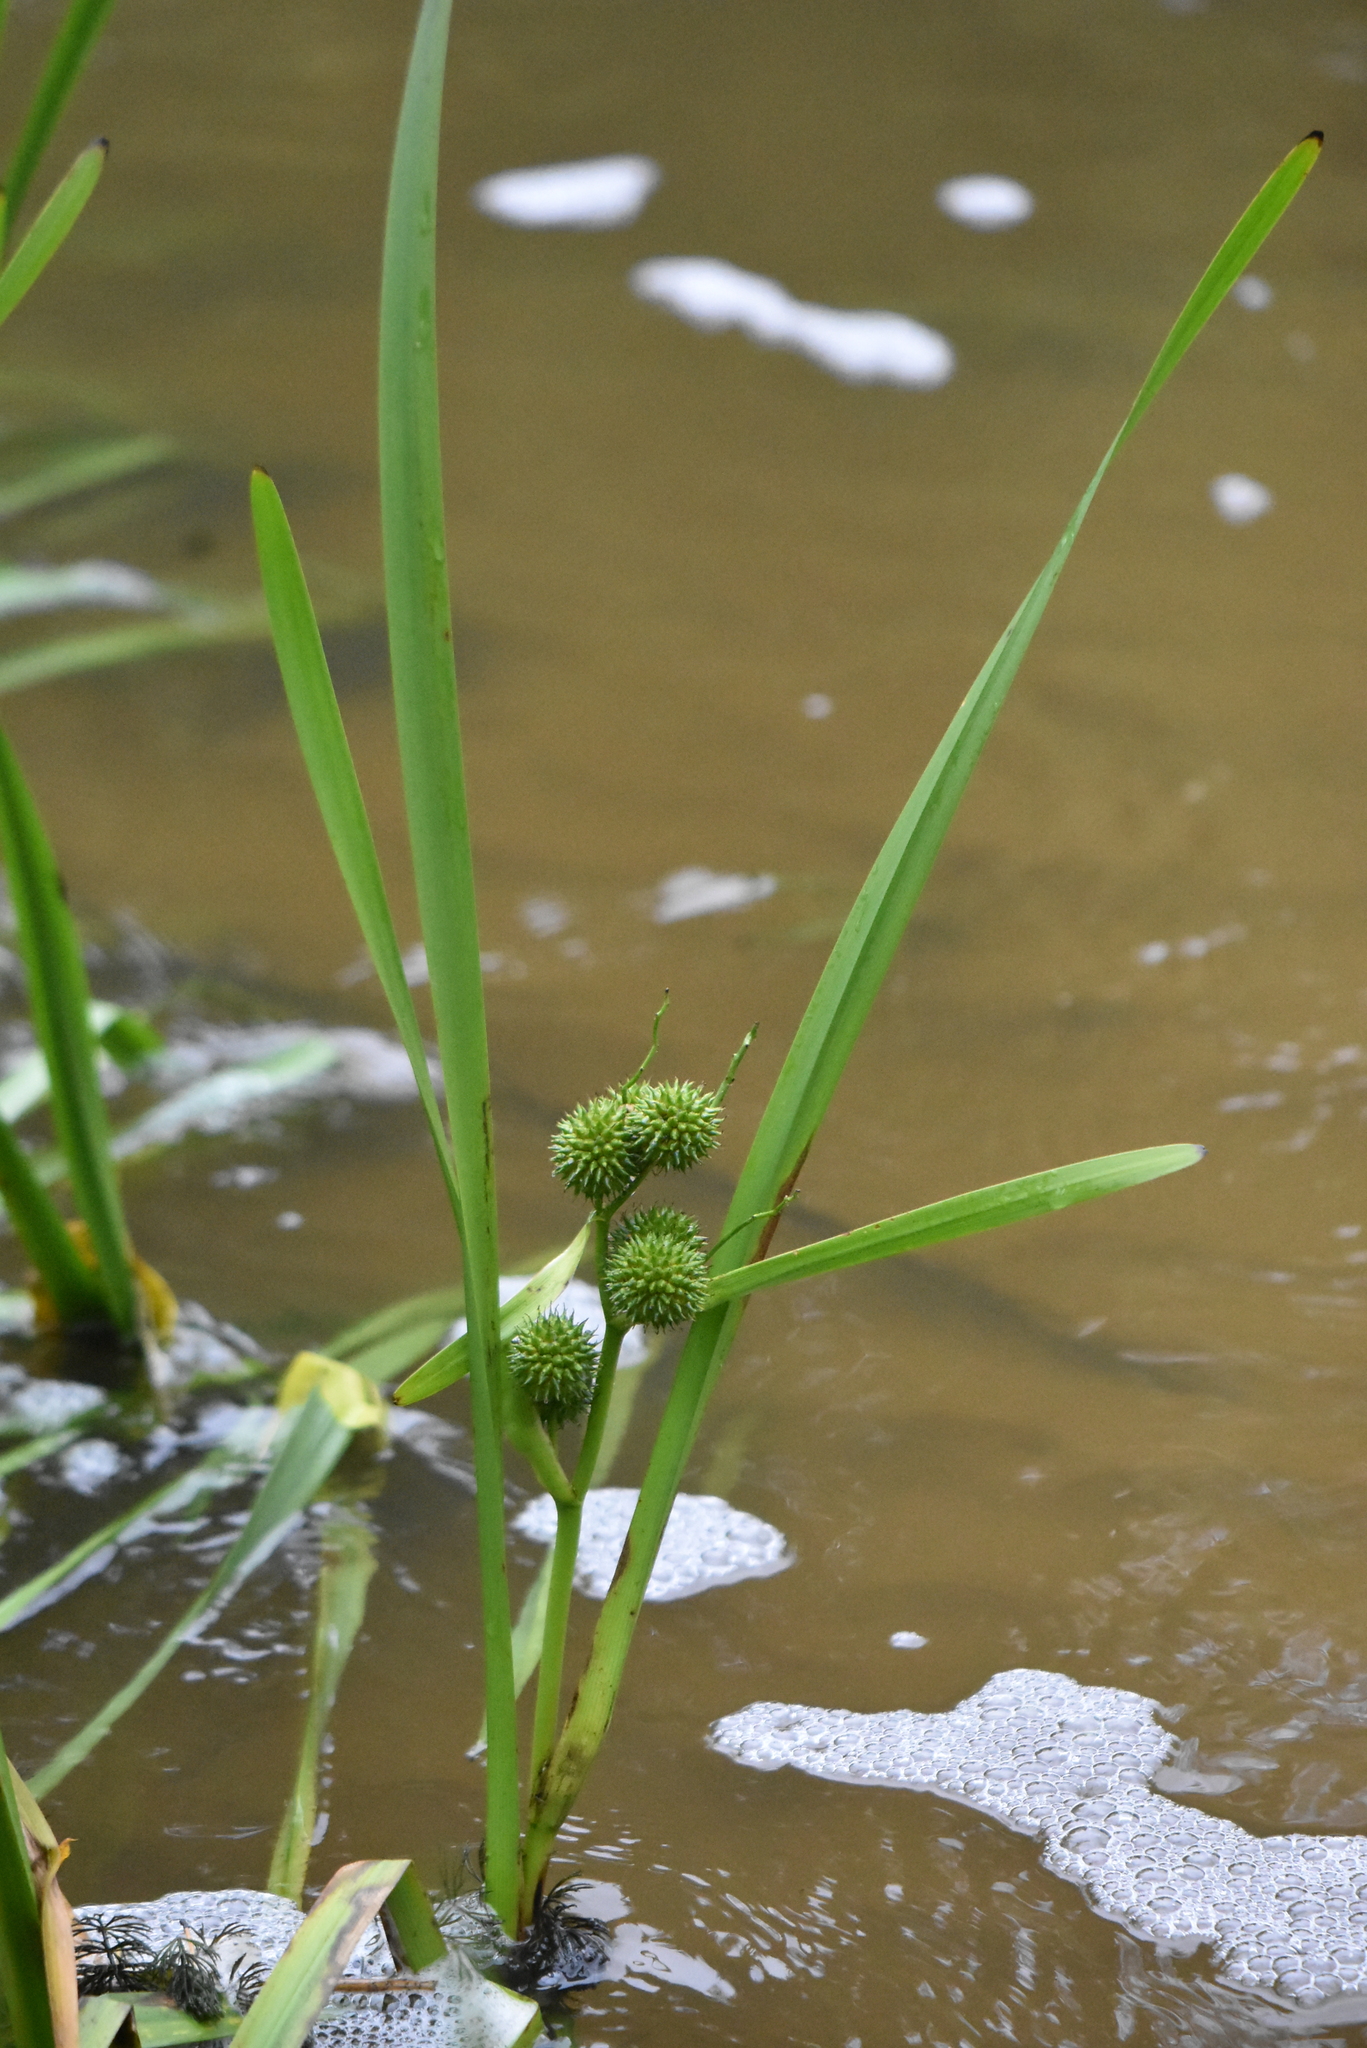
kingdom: Plantae
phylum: Tracheophyta
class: Liliopsida
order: Poales
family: Typhaceae
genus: Sparganium
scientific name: Sparganium erectum
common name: Branched bur-reed
